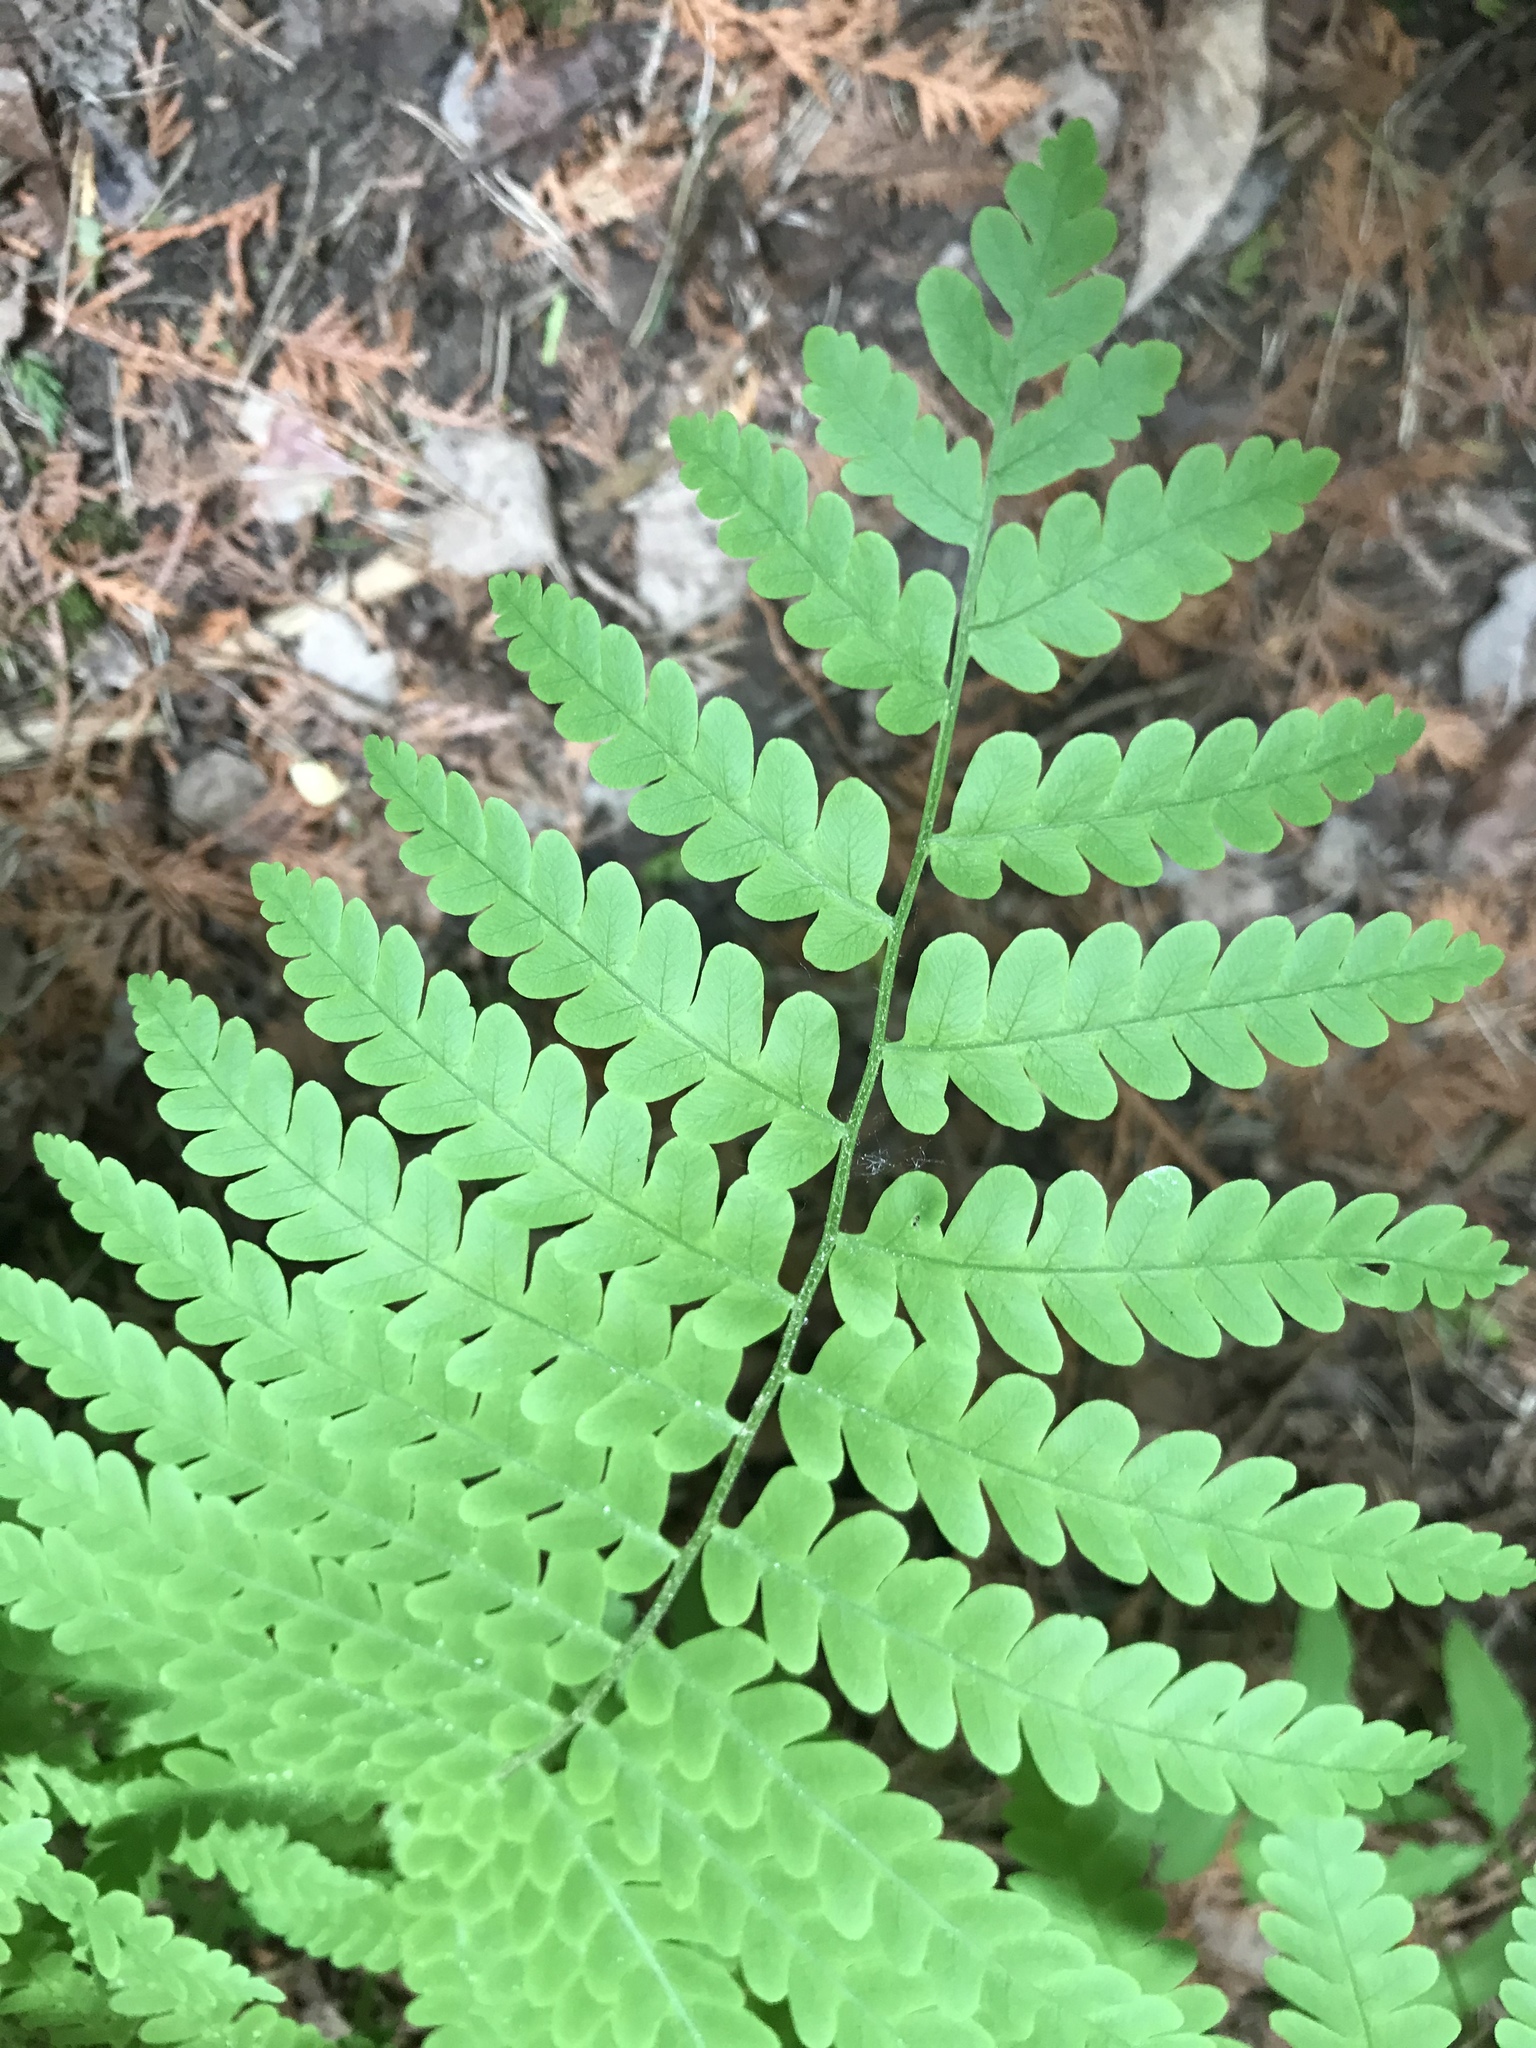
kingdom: Plantae
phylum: Tracheophyta
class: Polypodiopsida
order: Osmundales
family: Osmundaceae
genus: Osmundastrum
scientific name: Osmundastrum cinnamomeum
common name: Cinnamon fern
